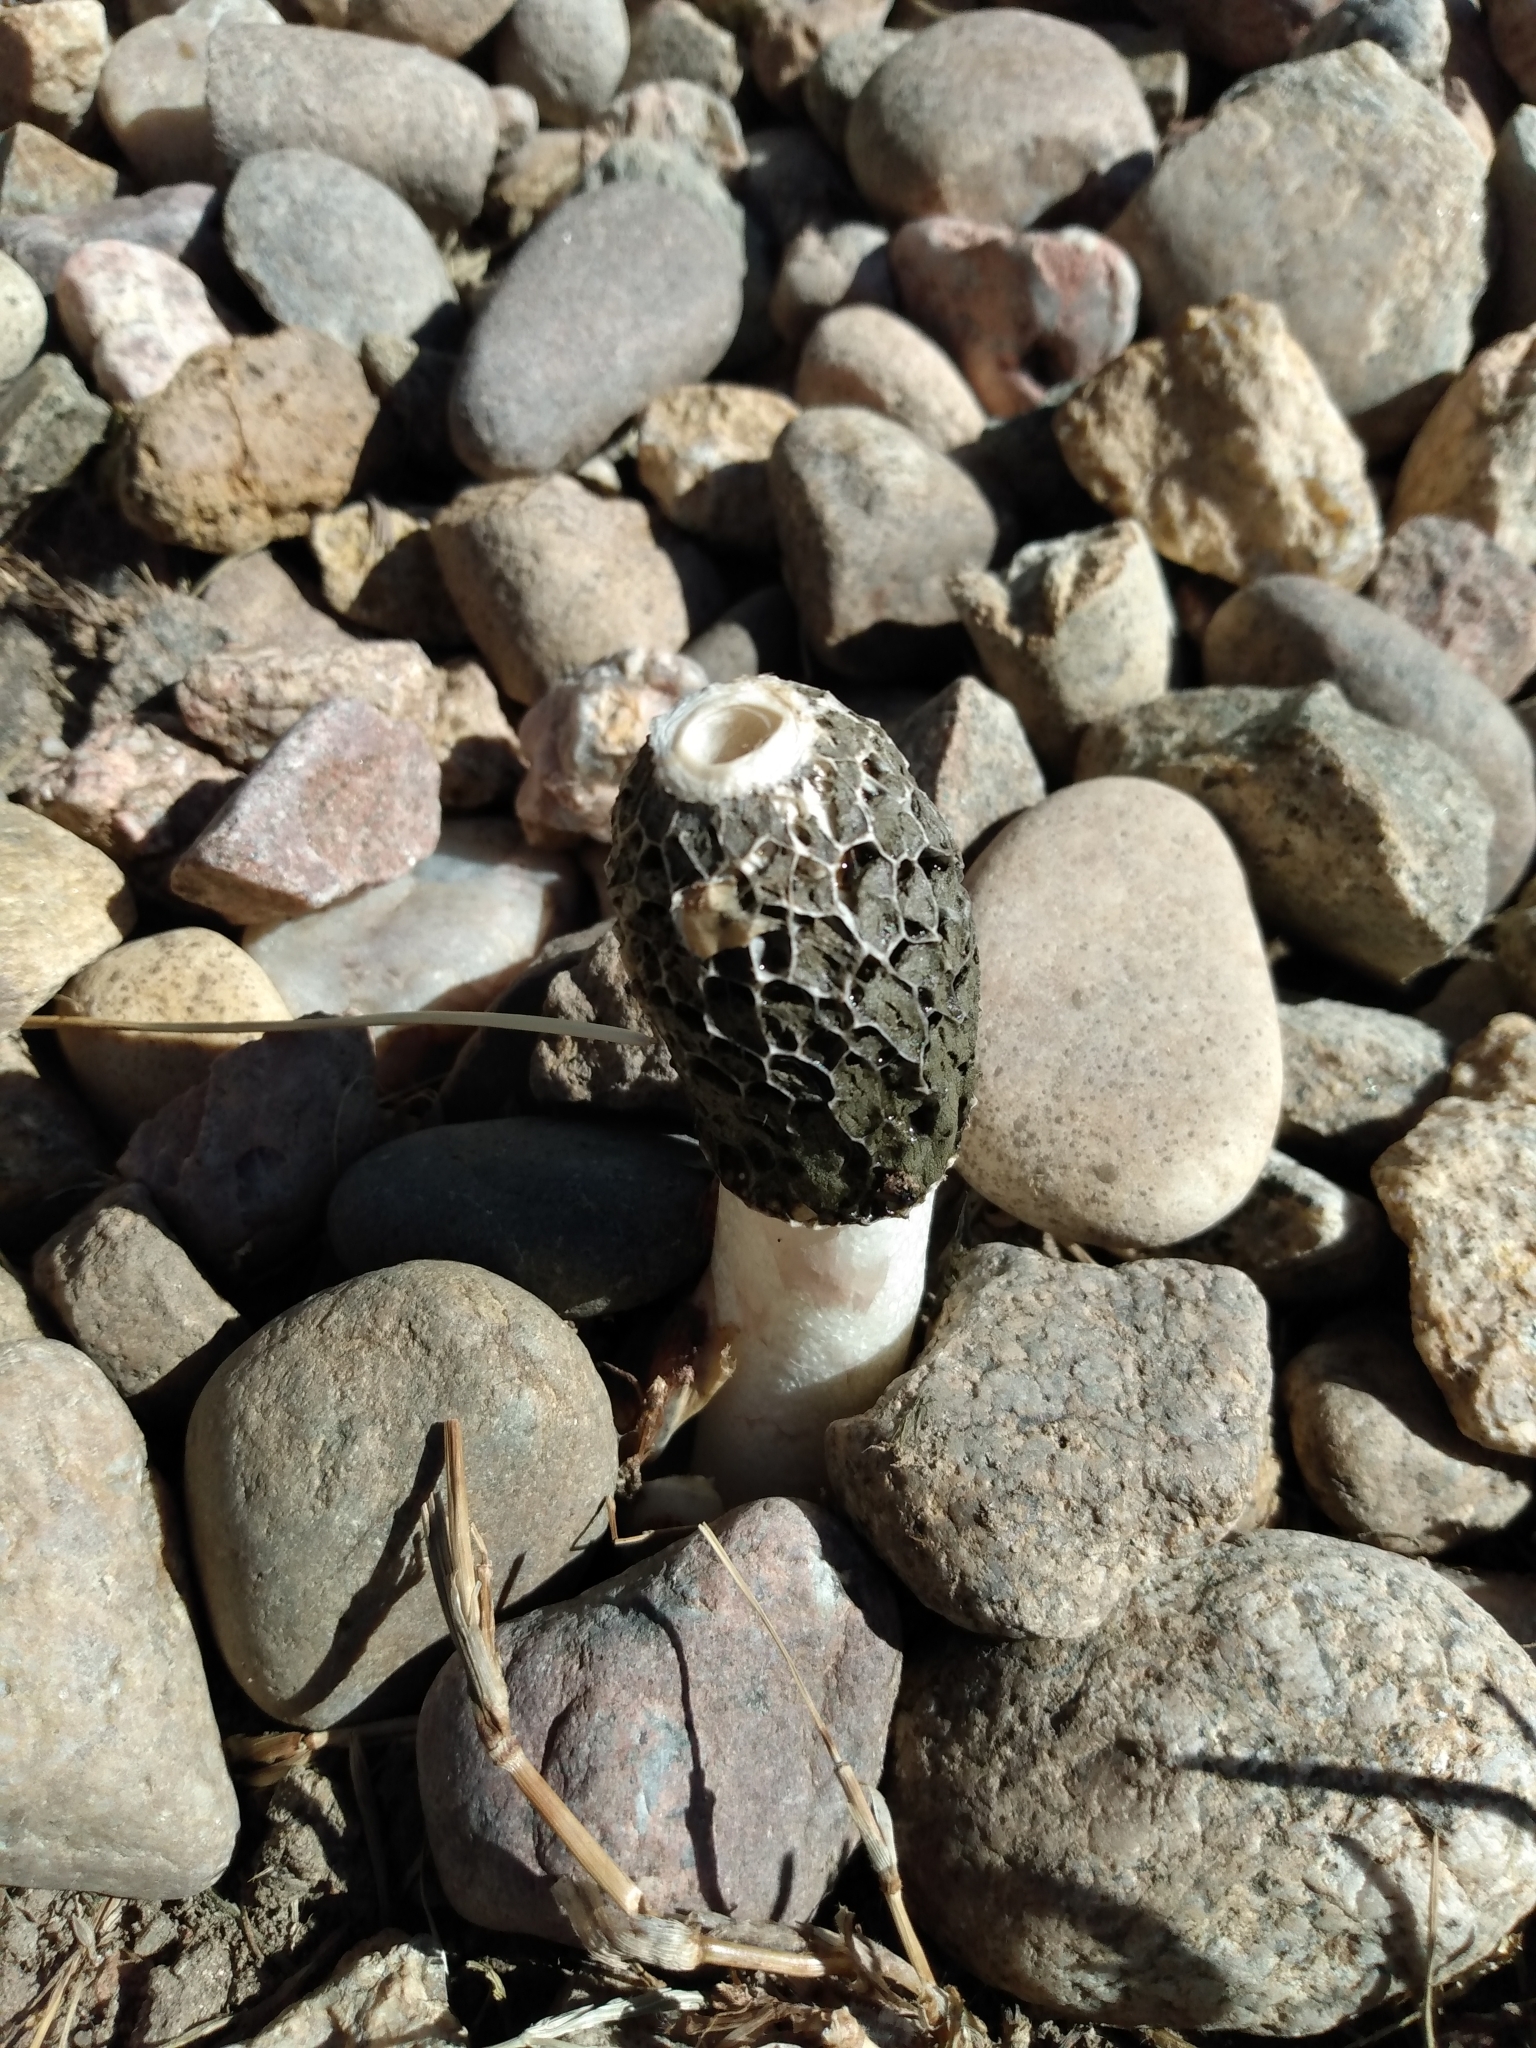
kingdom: Fungi
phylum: Basidiomycota
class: Agaricomycetes
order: Phallales
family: Phallaceae
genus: Phallus
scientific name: Phallus hadriani
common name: Sand stinkhorn
